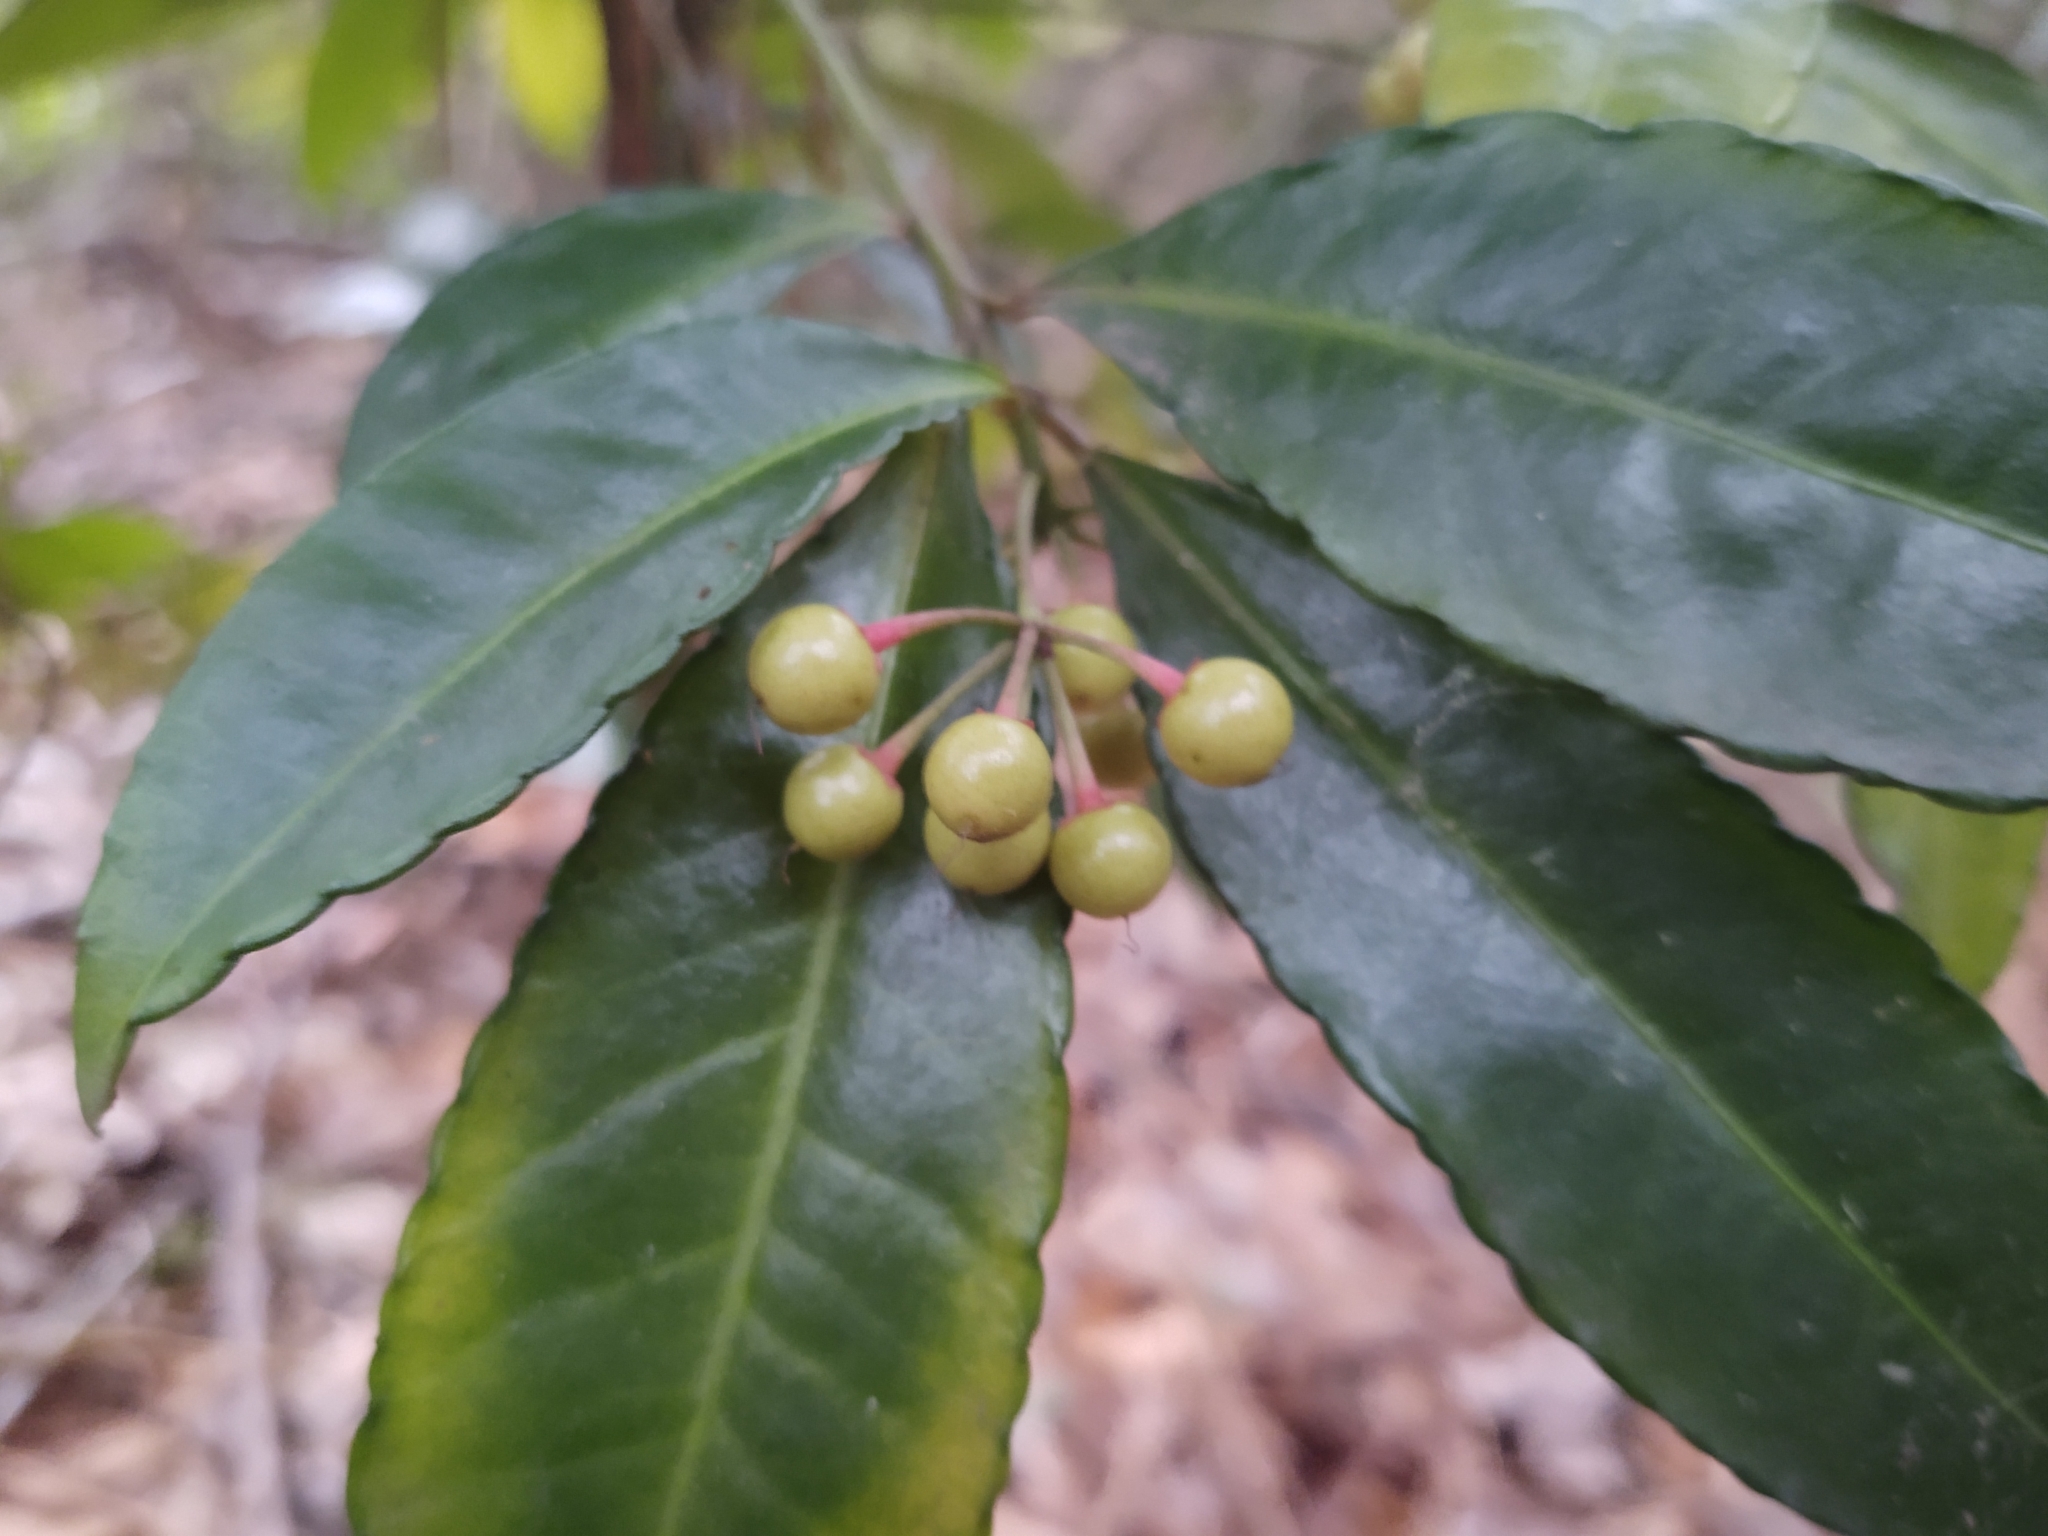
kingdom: Plantae
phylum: Tracheophyta
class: Magnoliopsida
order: Ericales
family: Primulaceae
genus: Ardisia
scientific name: Ardisia crenata
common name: Hen's eyes
